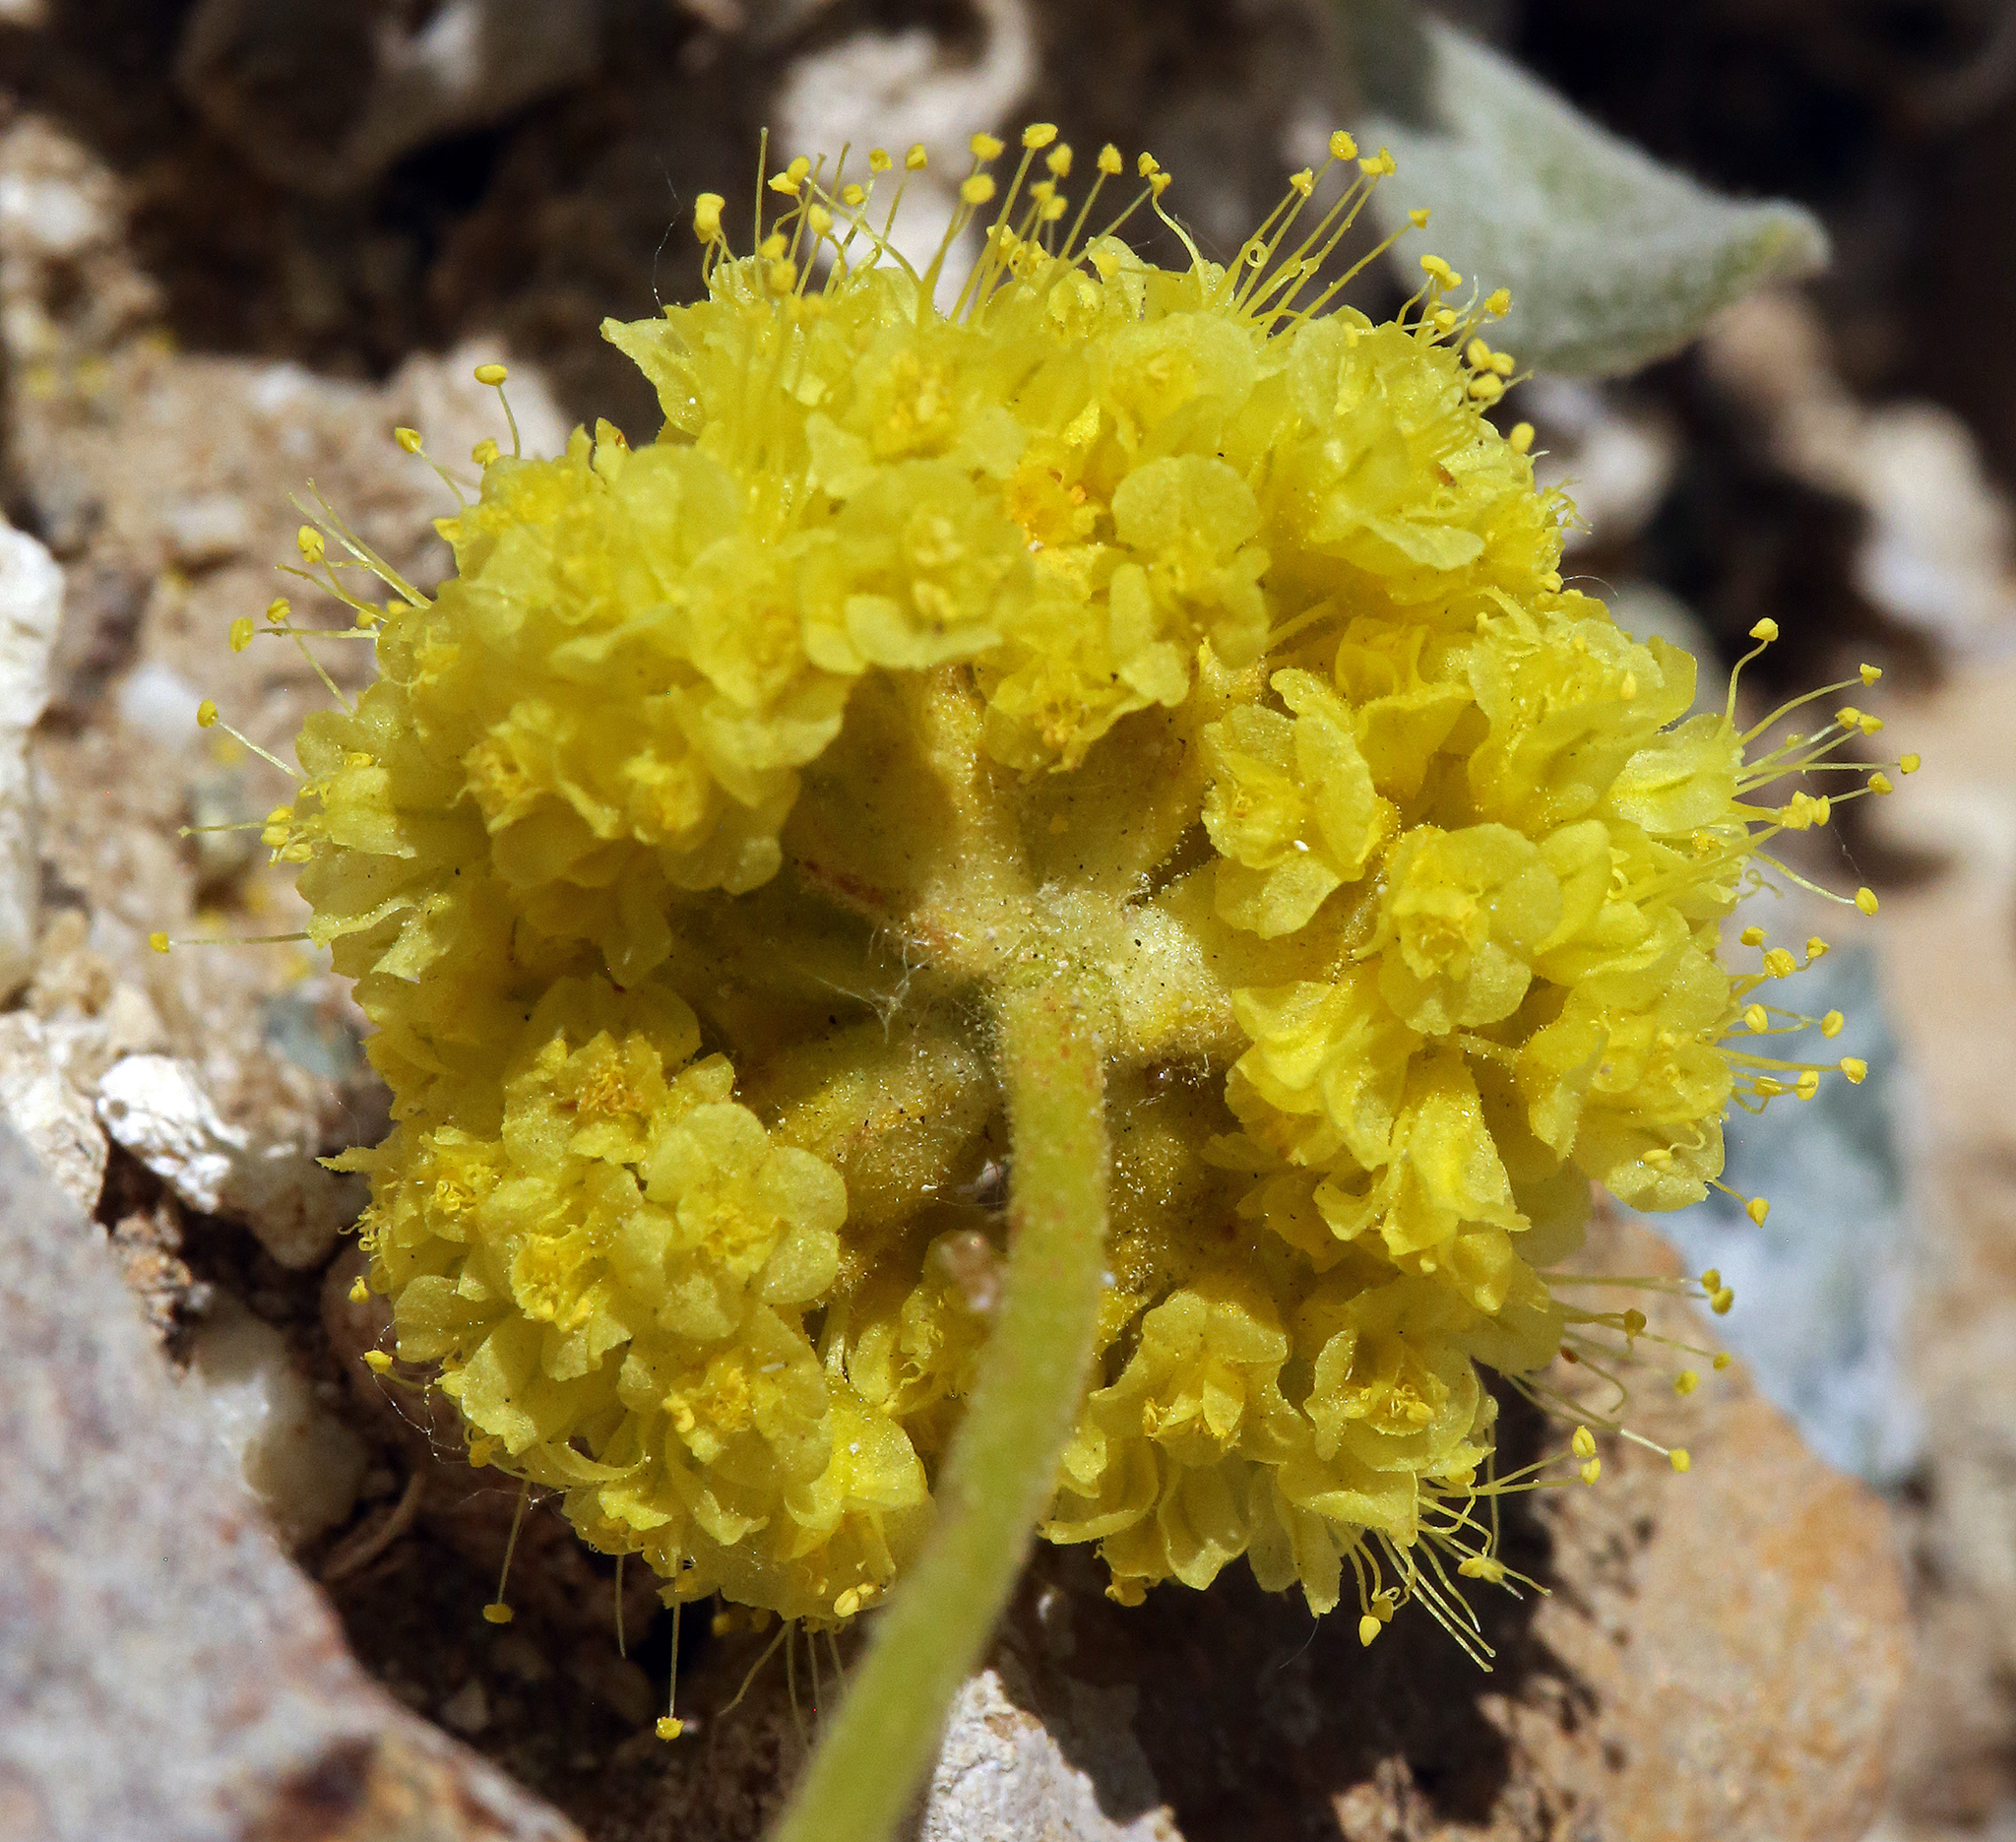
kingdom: Plantae
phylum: Tracheophyta
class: Magnoliopsida
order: Caryophyllales
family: Polygonaceae
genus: Eriogonum
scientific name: Eriogonum rosense
